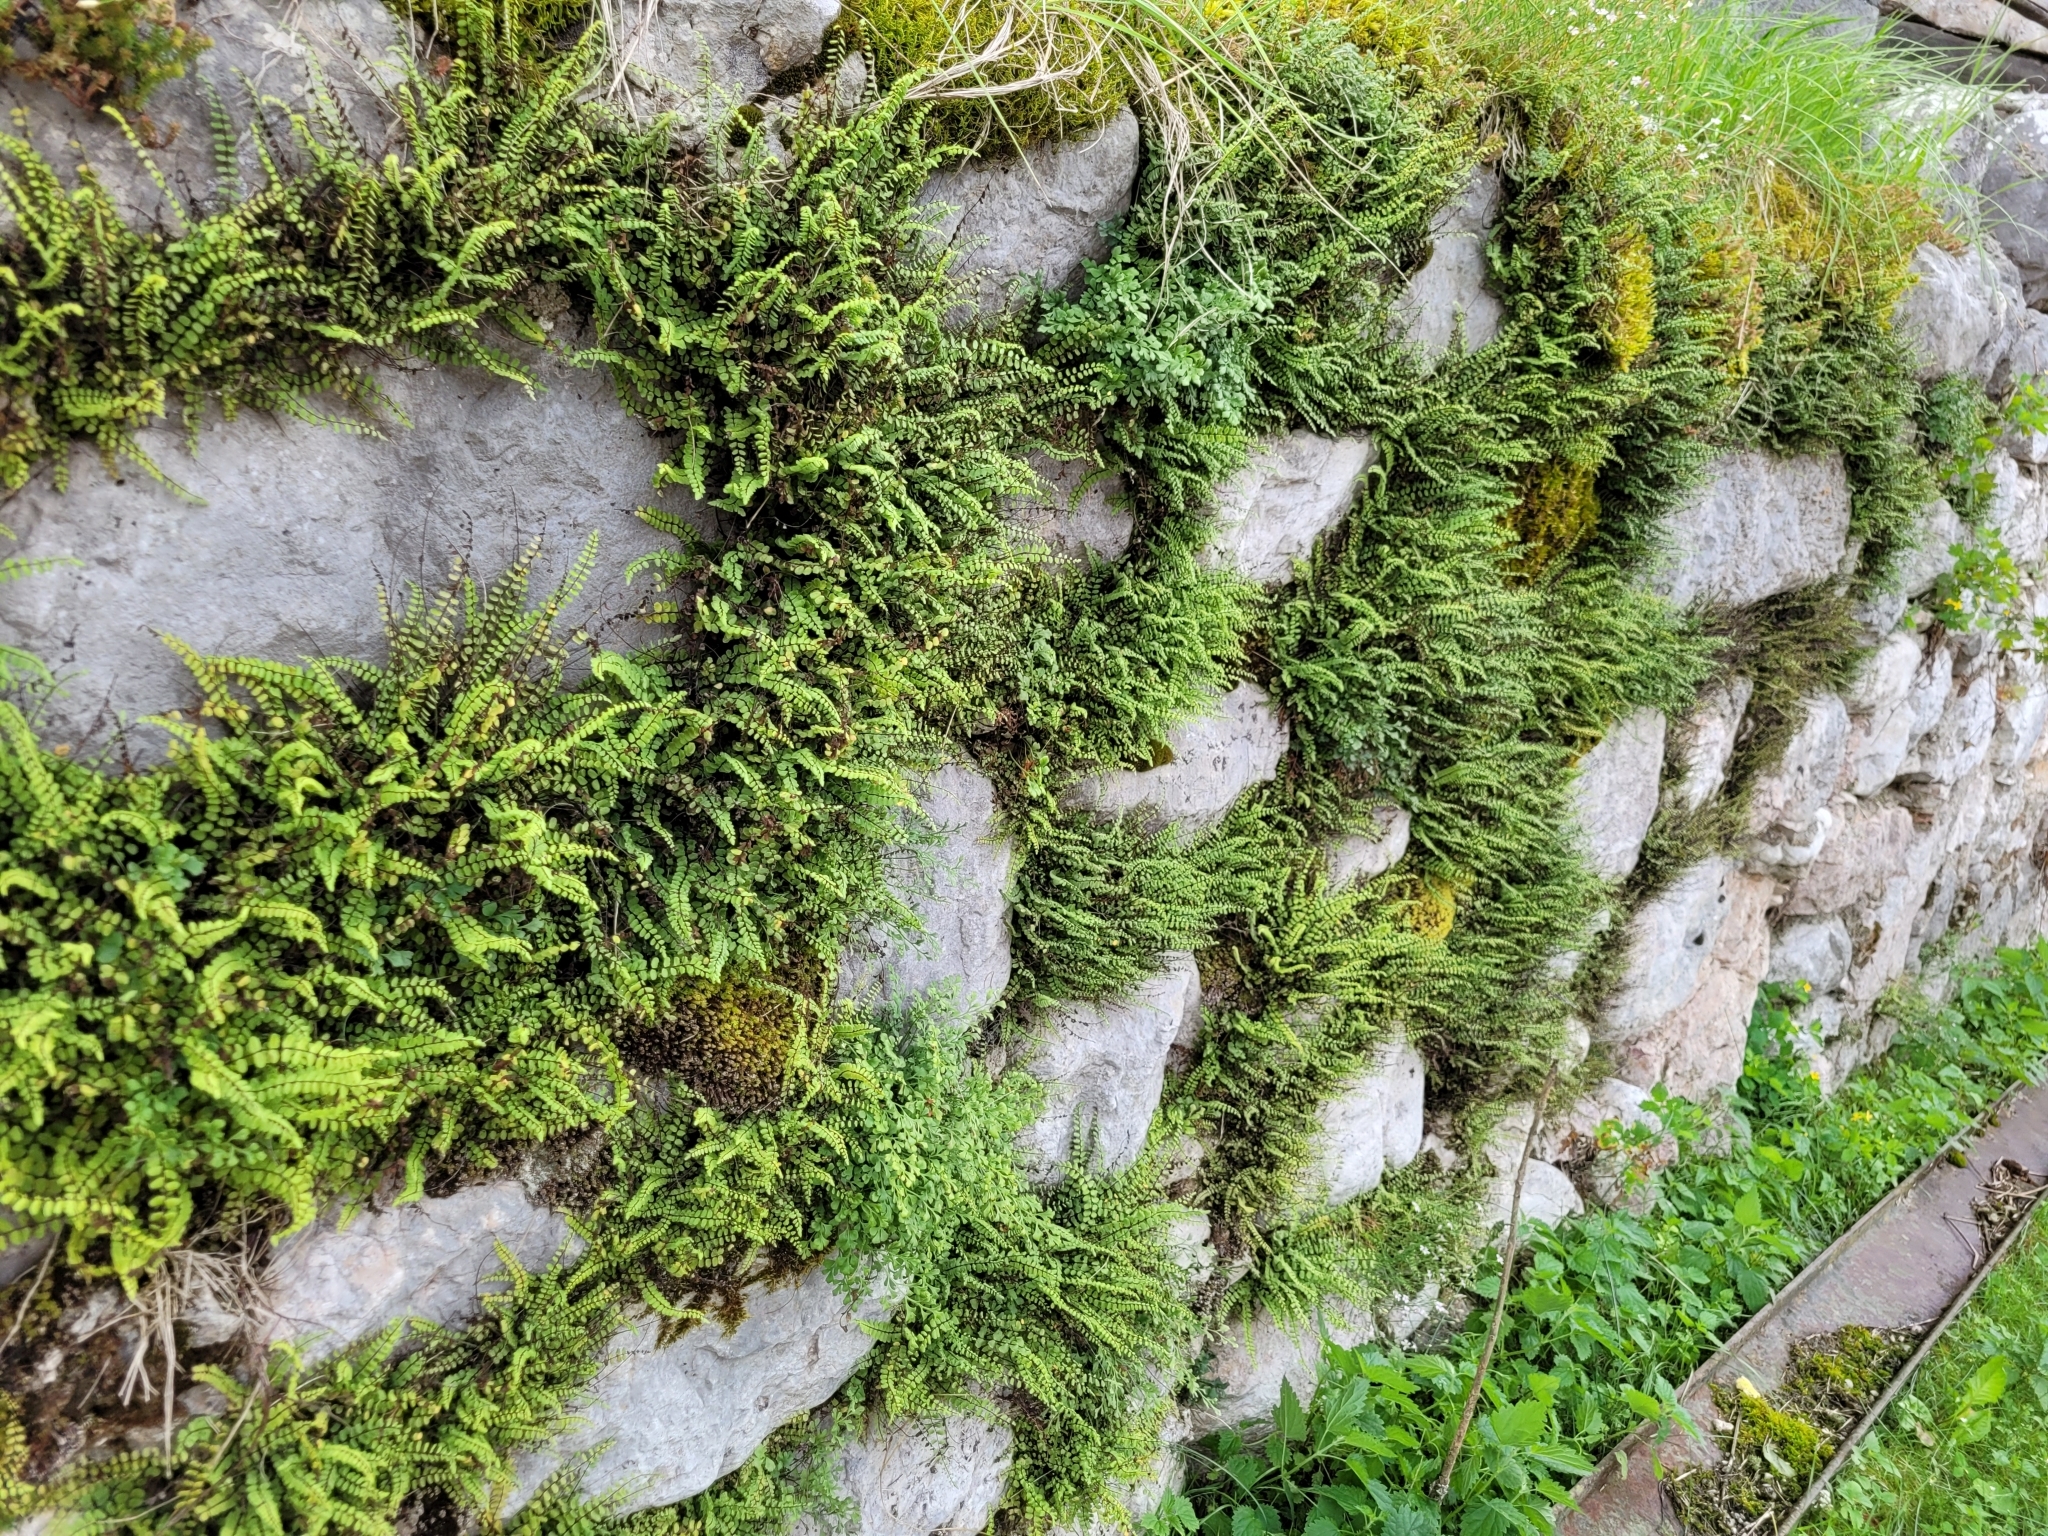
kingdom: Plantae
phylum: Tracheophyta
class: Polypodiopsida
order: Polypodiales
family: Aspleniaceae
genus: Asplenium
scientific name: Asplenium trichomanes
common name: Maidenhair spleenwort
